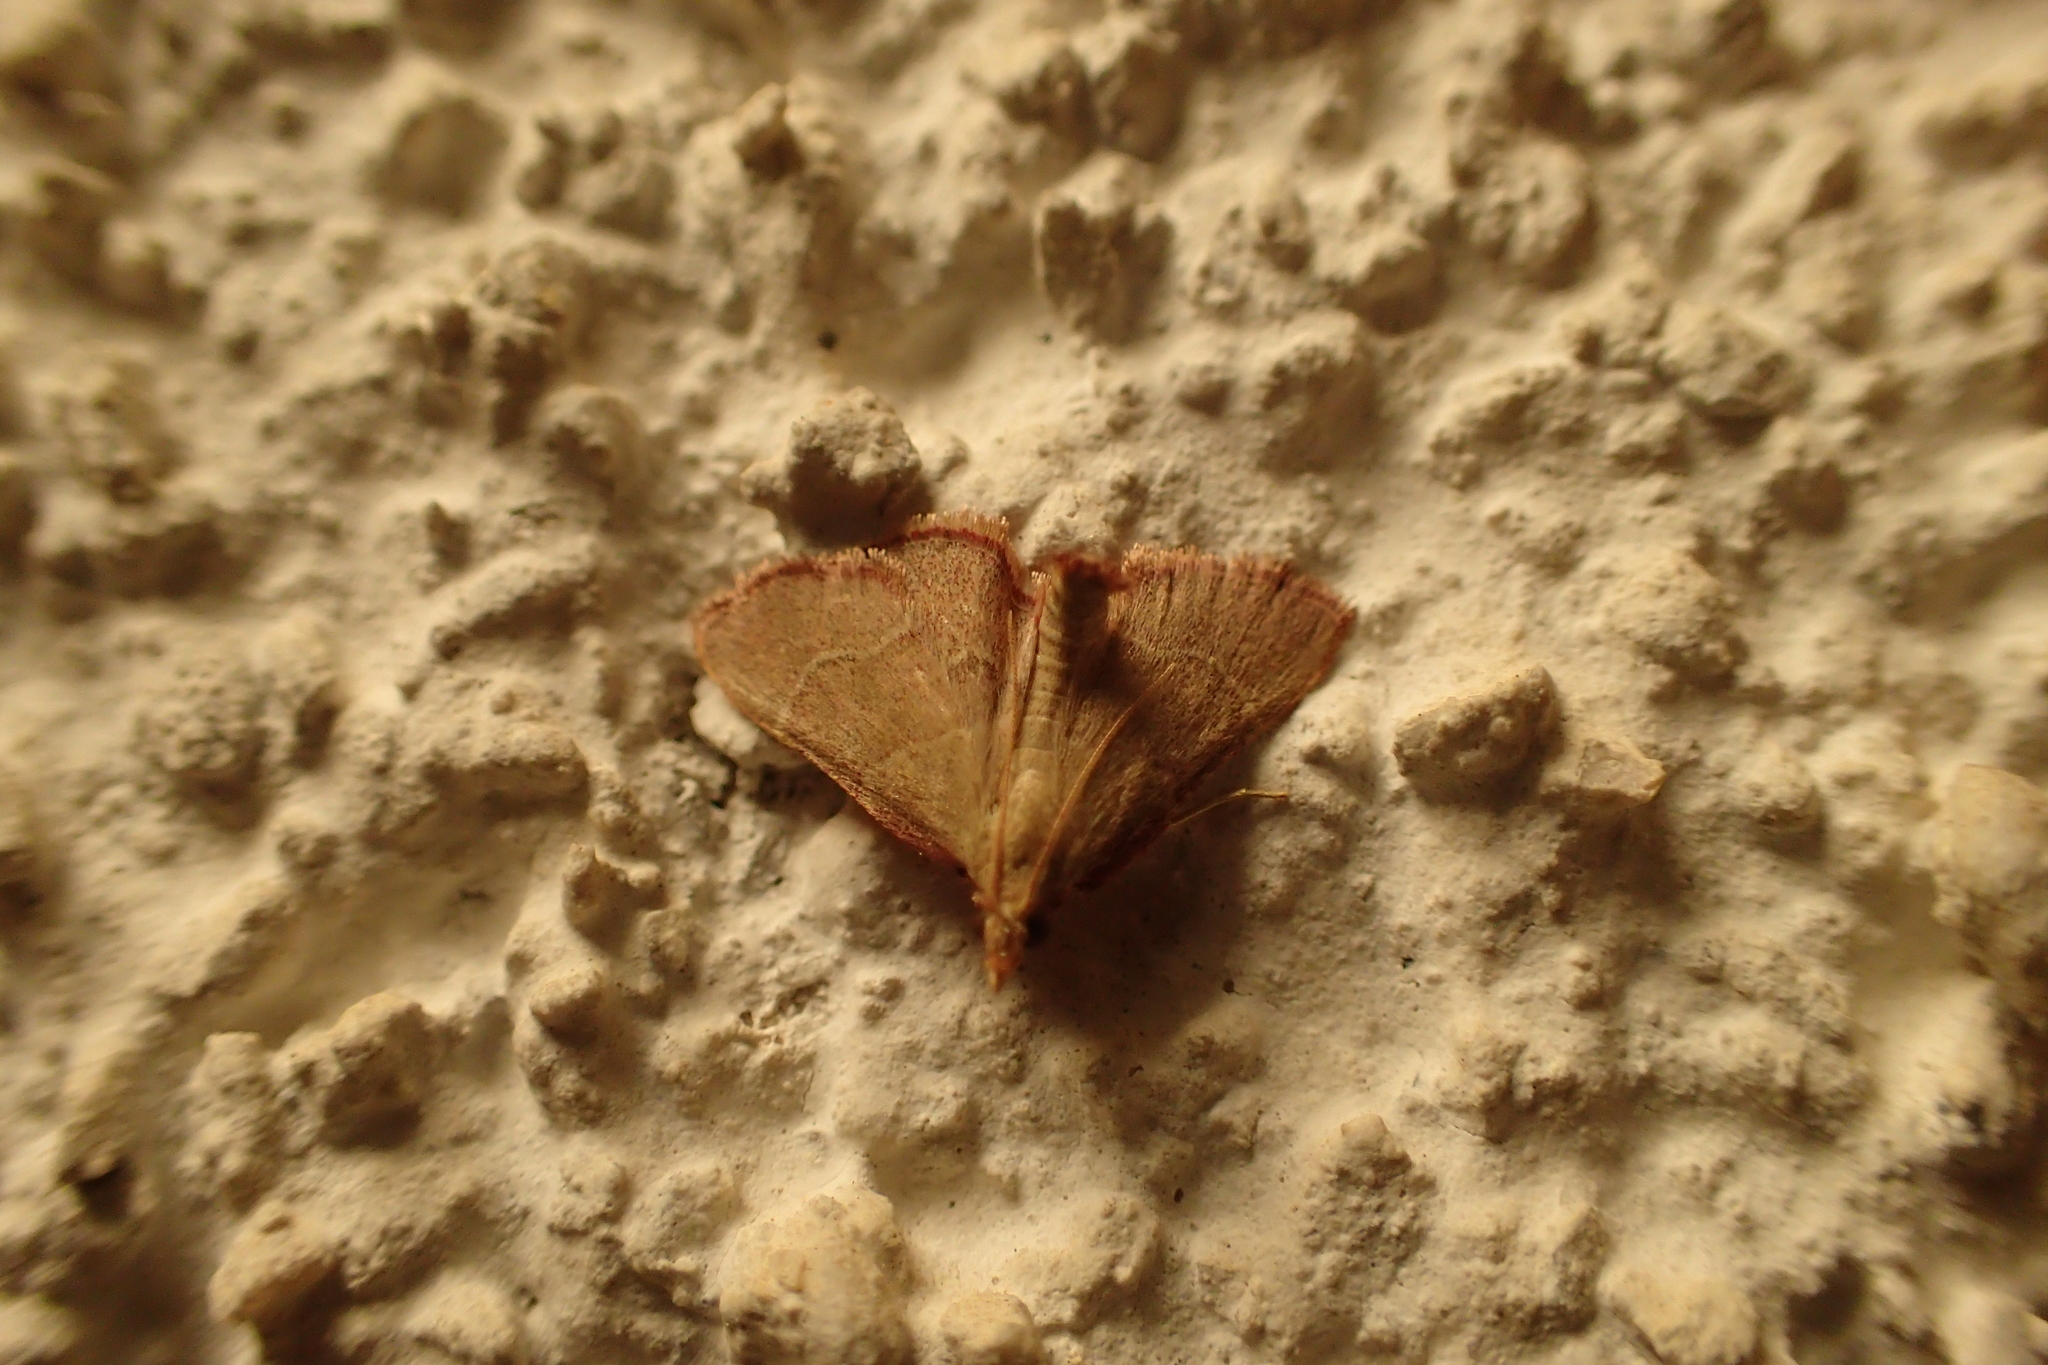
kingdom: Animalia
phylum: Arthropoda
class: Insecta
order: Lepidoptera
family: Pyralidae
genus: Endotricha
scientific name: Endotricha flammealis
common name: Rosy tabby
